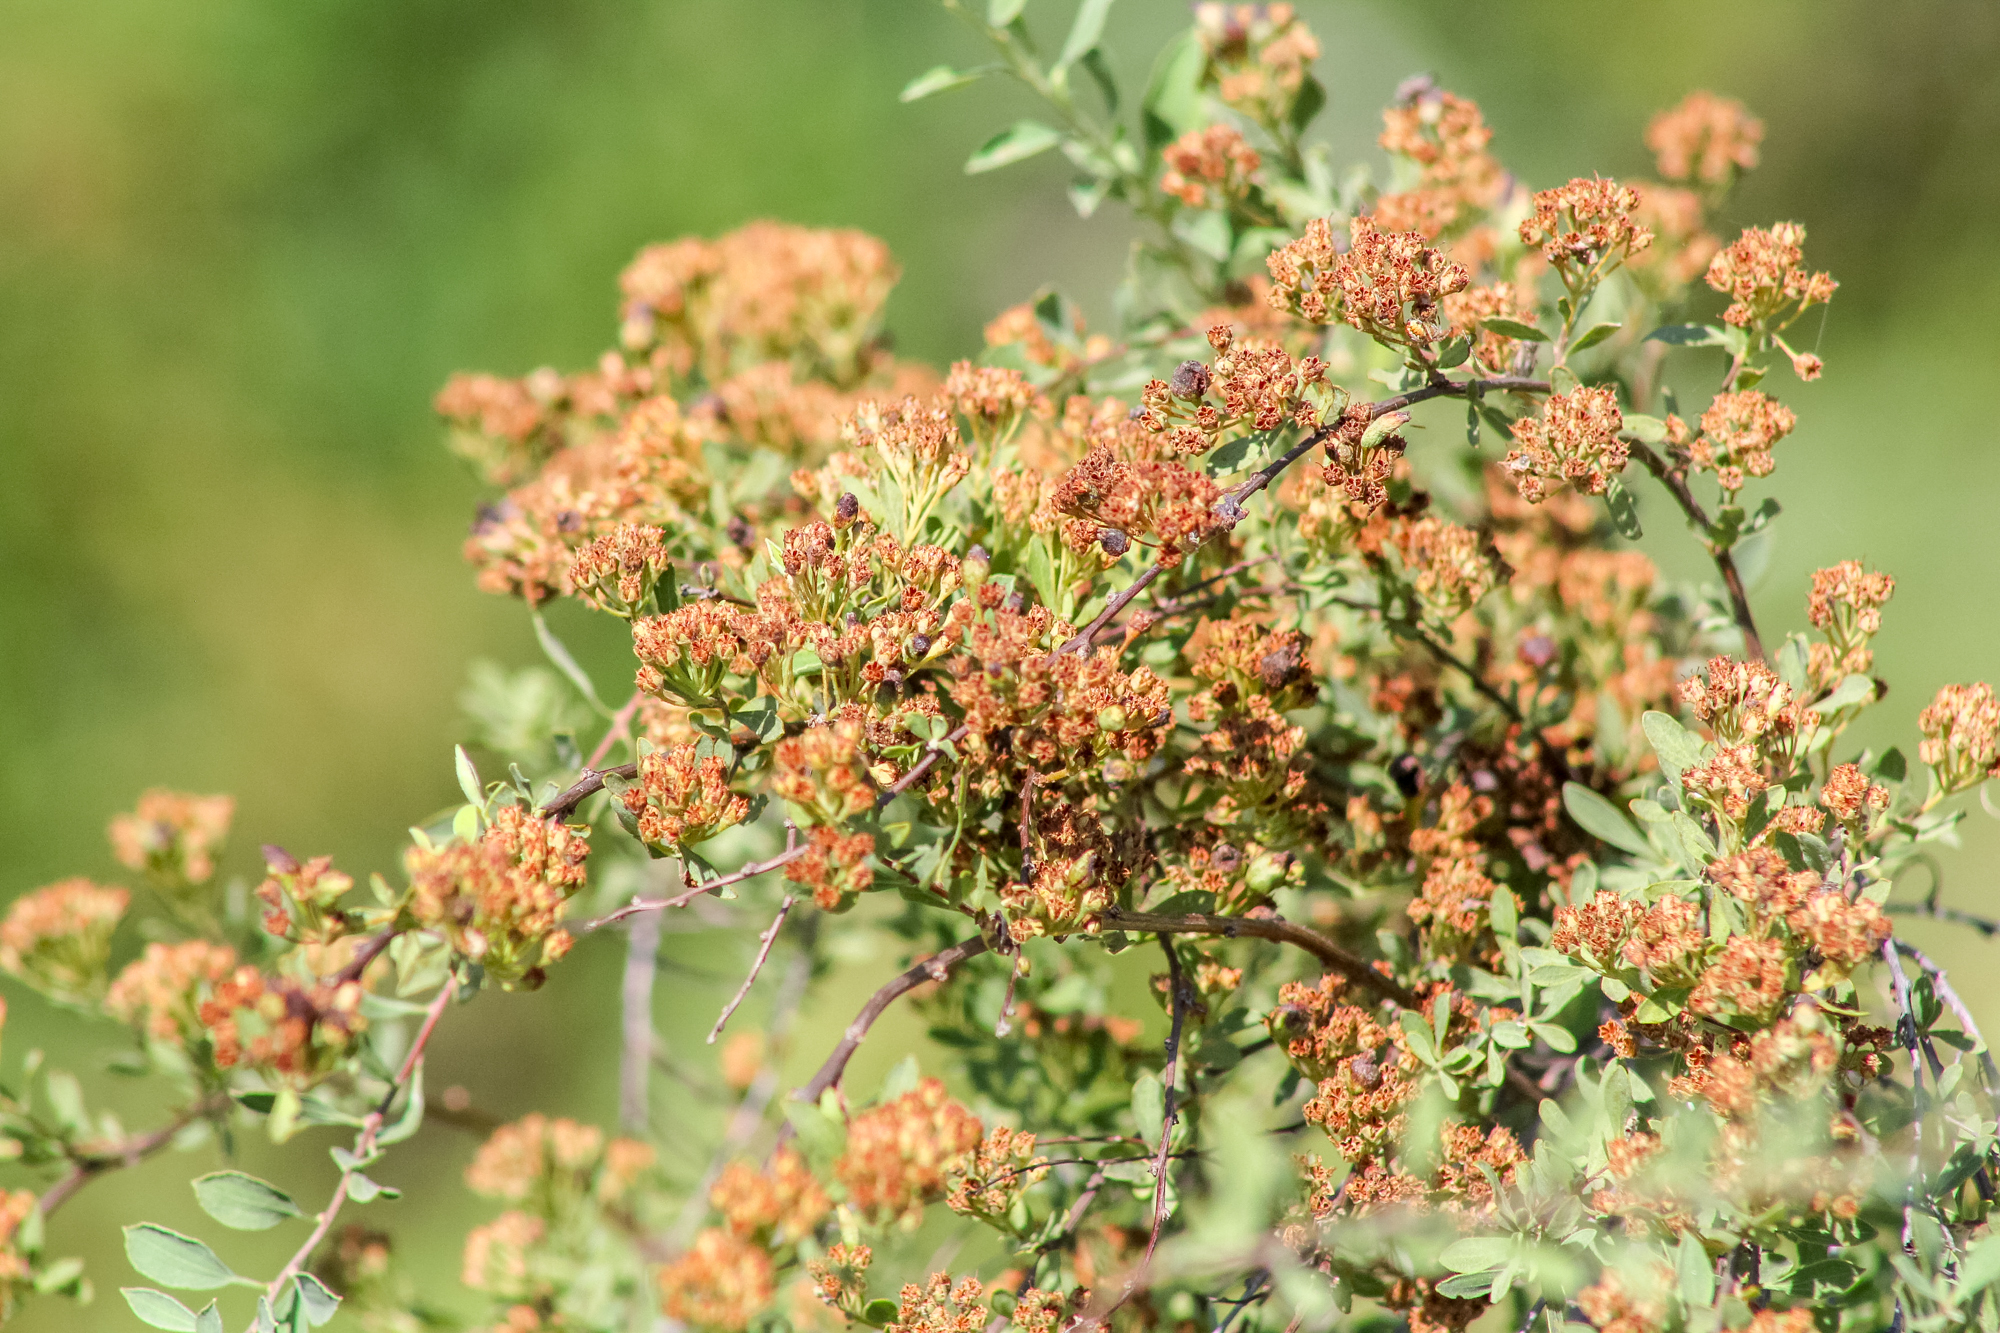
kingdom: Plantae
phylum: Tracheophyta
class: Magnoliopsida
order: Rosales
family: Rosaceae
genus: Spiraea
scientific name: Spiraea crenata
